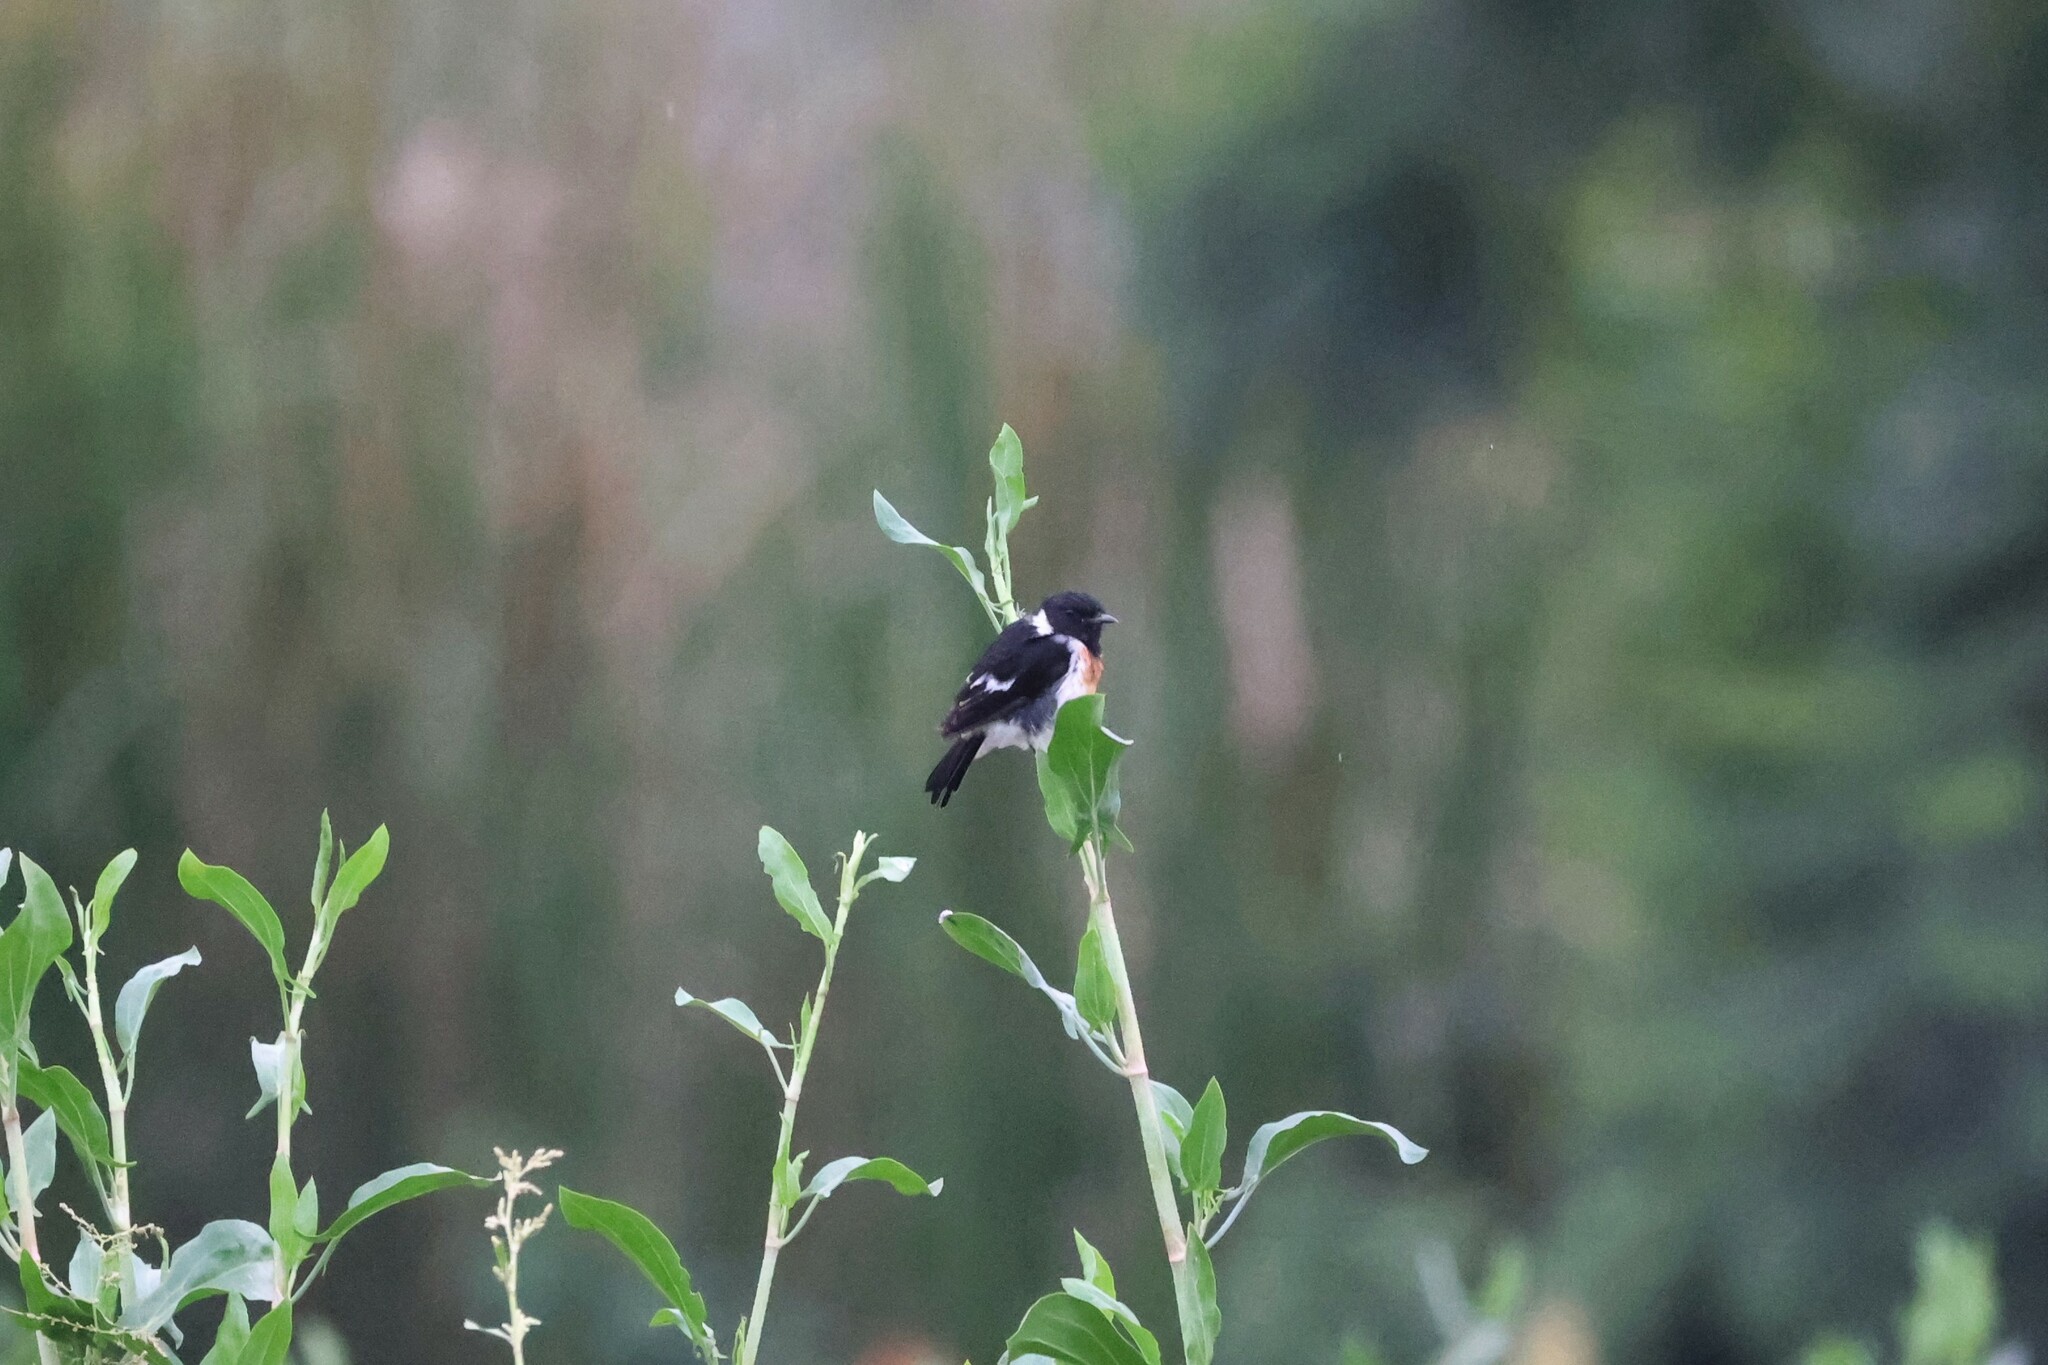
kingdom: Animalia
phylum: Chordata
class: Aves
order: Passeriformes
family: Muscicapidae
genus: Saxicola
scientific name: Saxicola torquatus
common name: African stonechat
